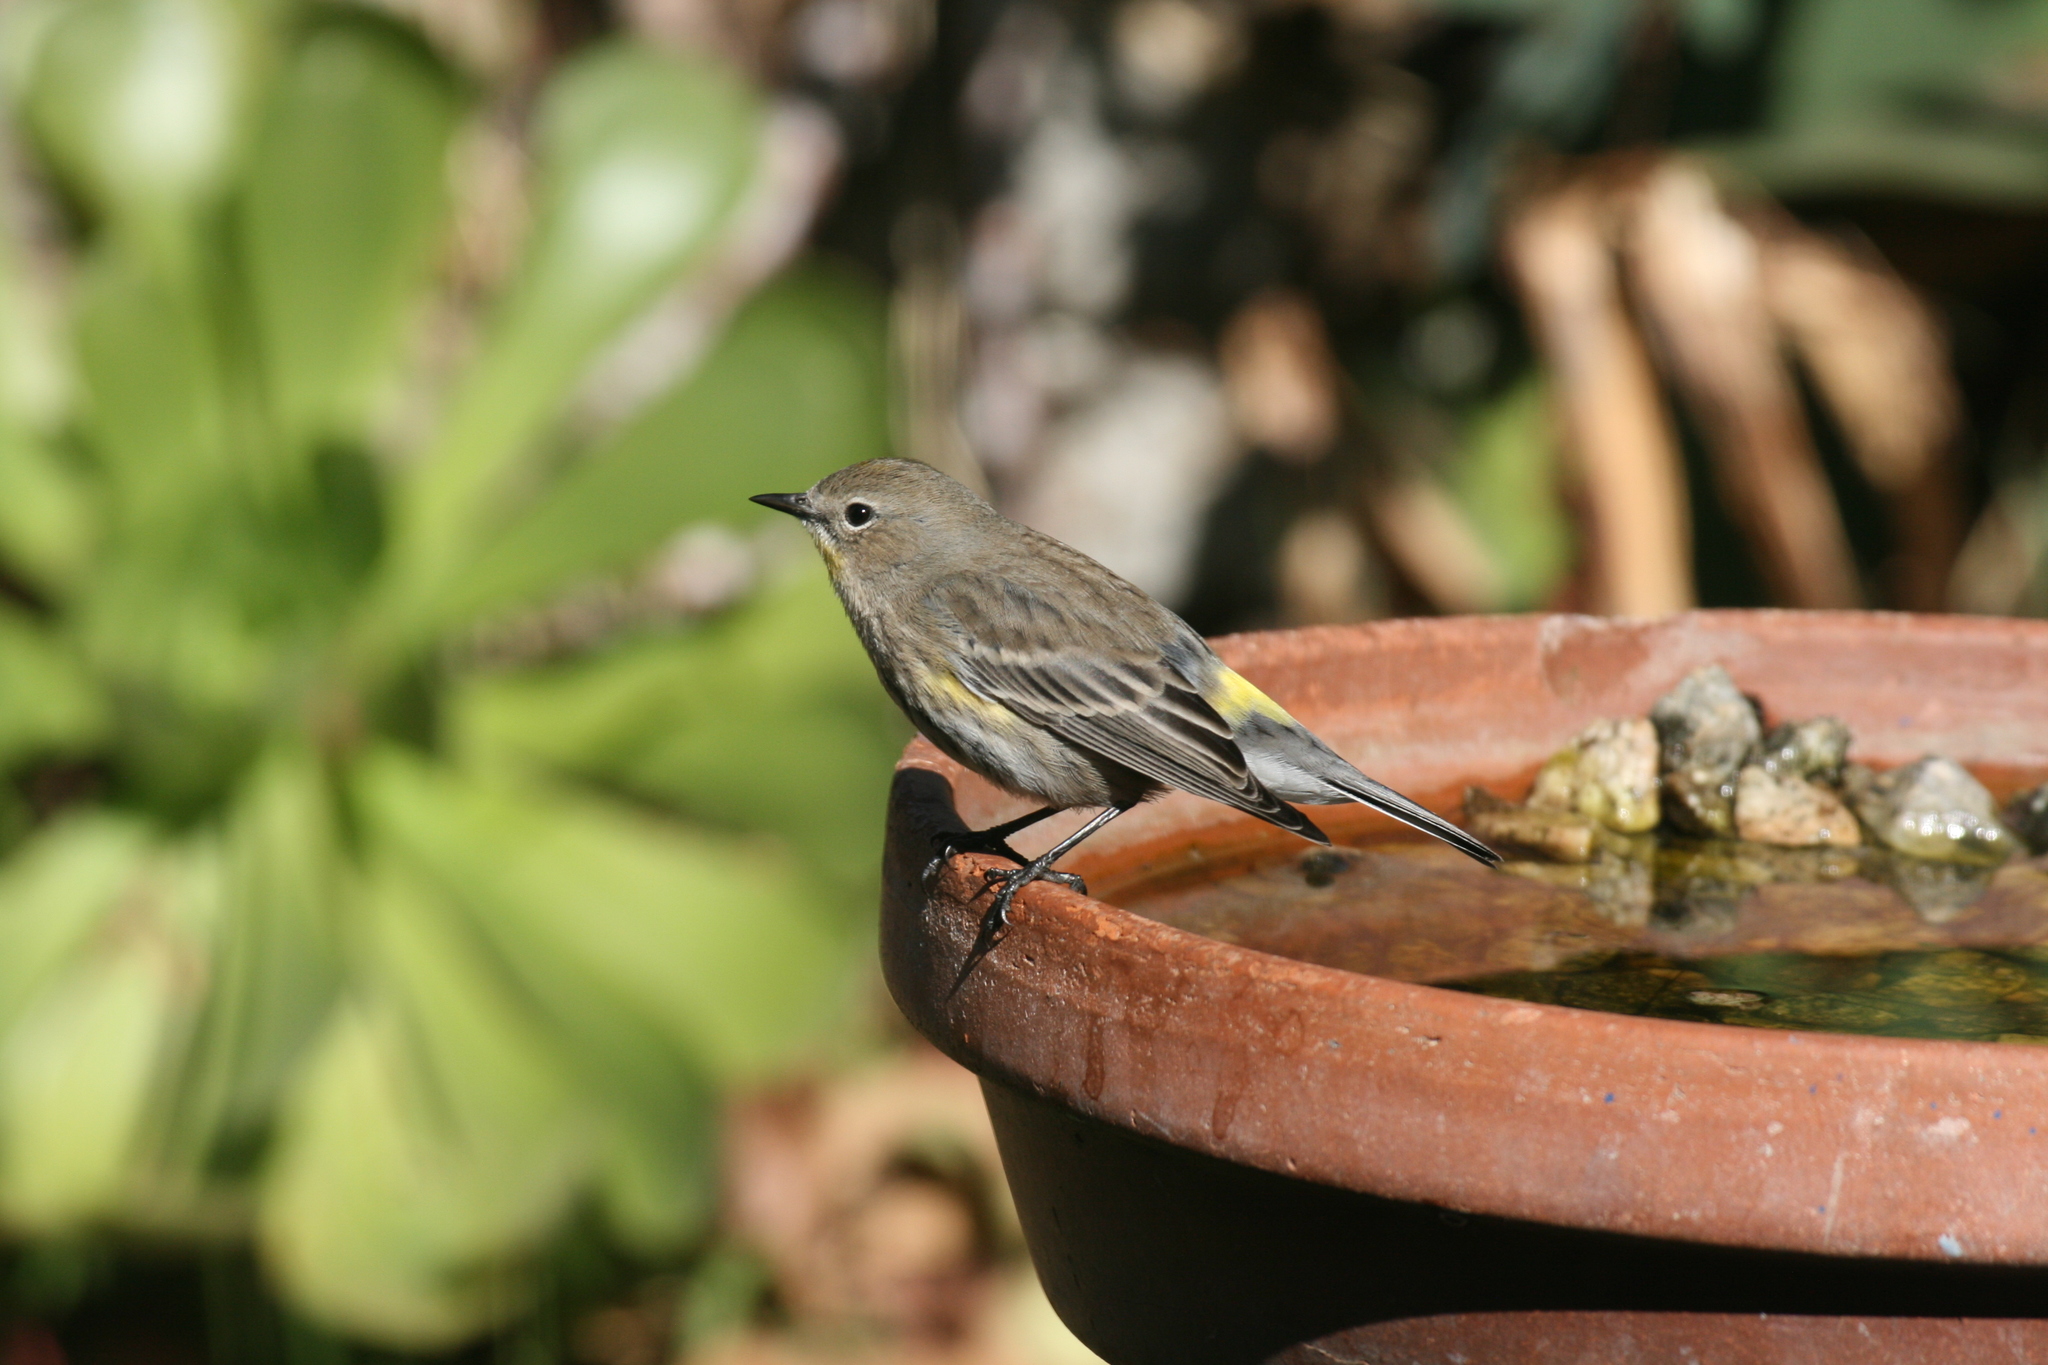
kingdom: Animalia
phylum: Chordata
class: Aves
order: Passeriformes
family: Parulidae
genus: Setophaga
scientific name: Setophaga coronata
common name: Myrtle warbler
